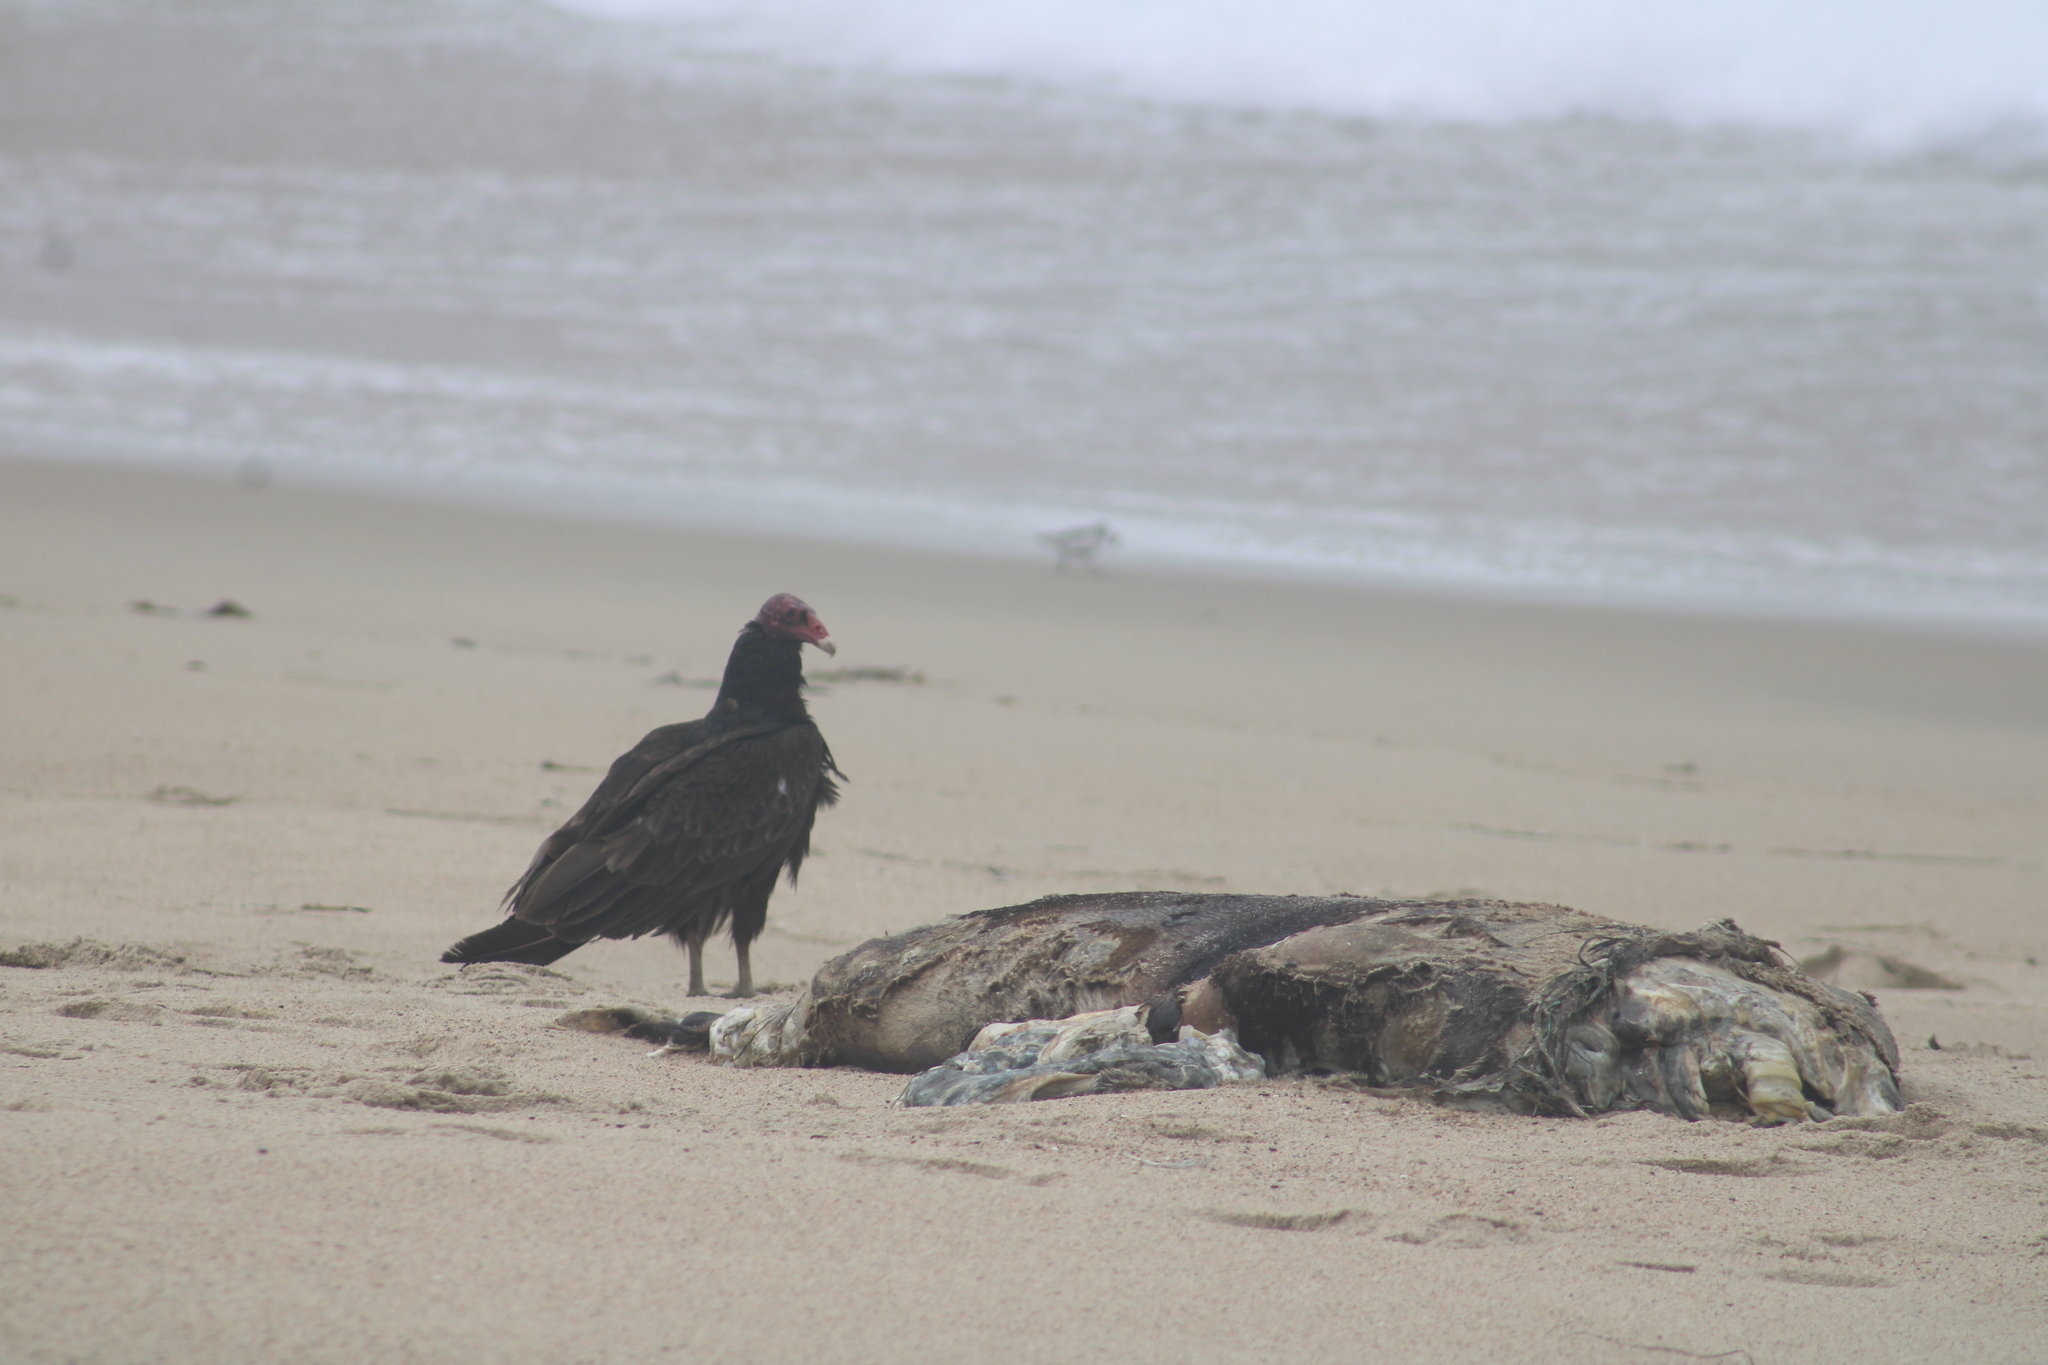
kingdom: Animalia
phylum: Chordata
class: Aves
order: Accipitriformes
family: Cathartidae
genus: Cathartes
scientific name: Cathartes aura
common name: Turkey vulture
